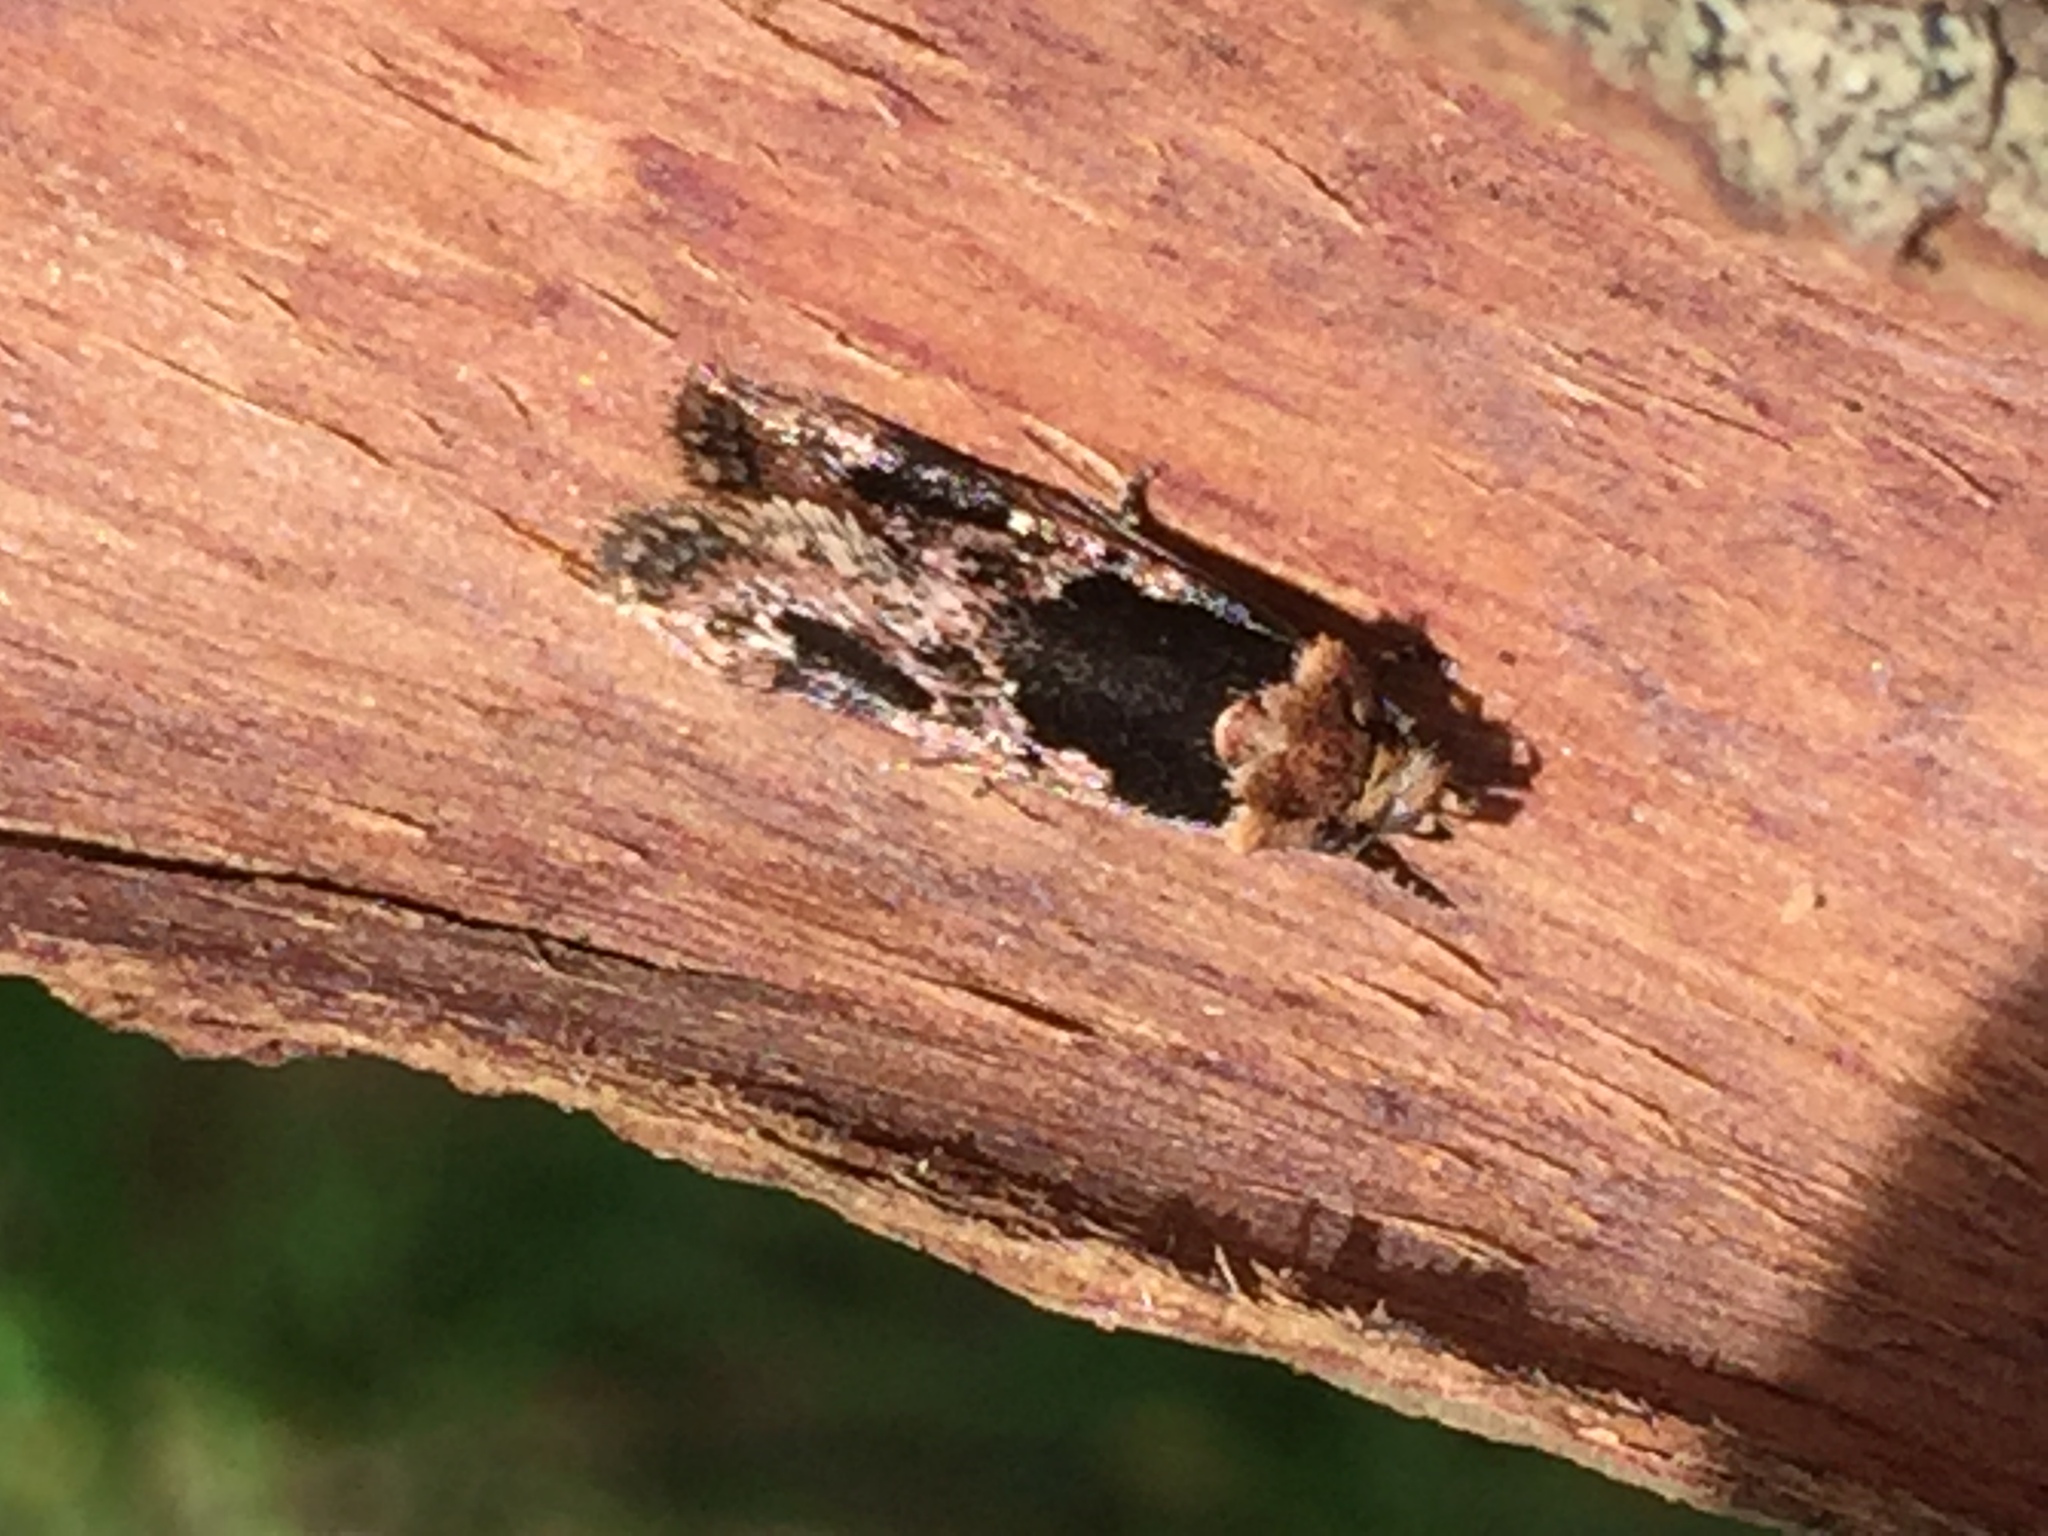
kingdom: Animalia
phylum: Arthropoda
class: Insecta
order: Lepidoptera
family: Oecophoridae
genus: Barea
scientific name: Barea consignatella
